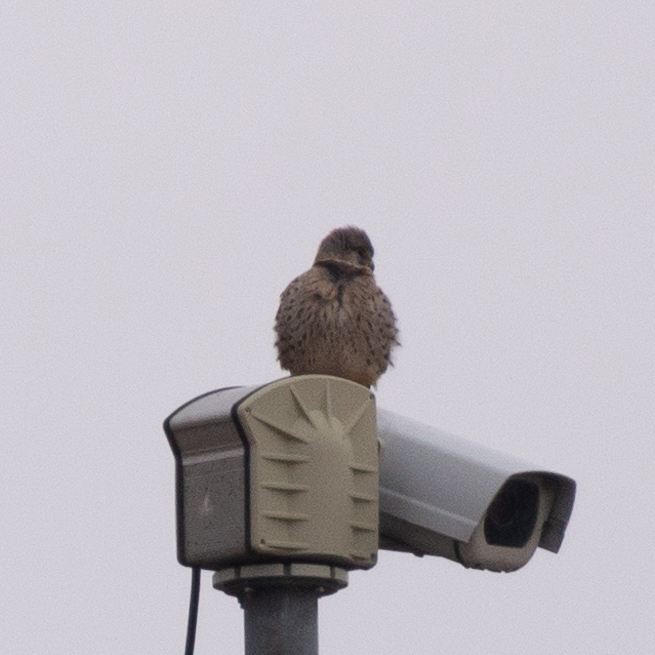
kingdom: Animalia
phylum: Chordata
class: Aves
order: Falconiformes
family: Falconidae
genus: Falco
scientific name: Falco tinnunculus
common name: Common kestrel
